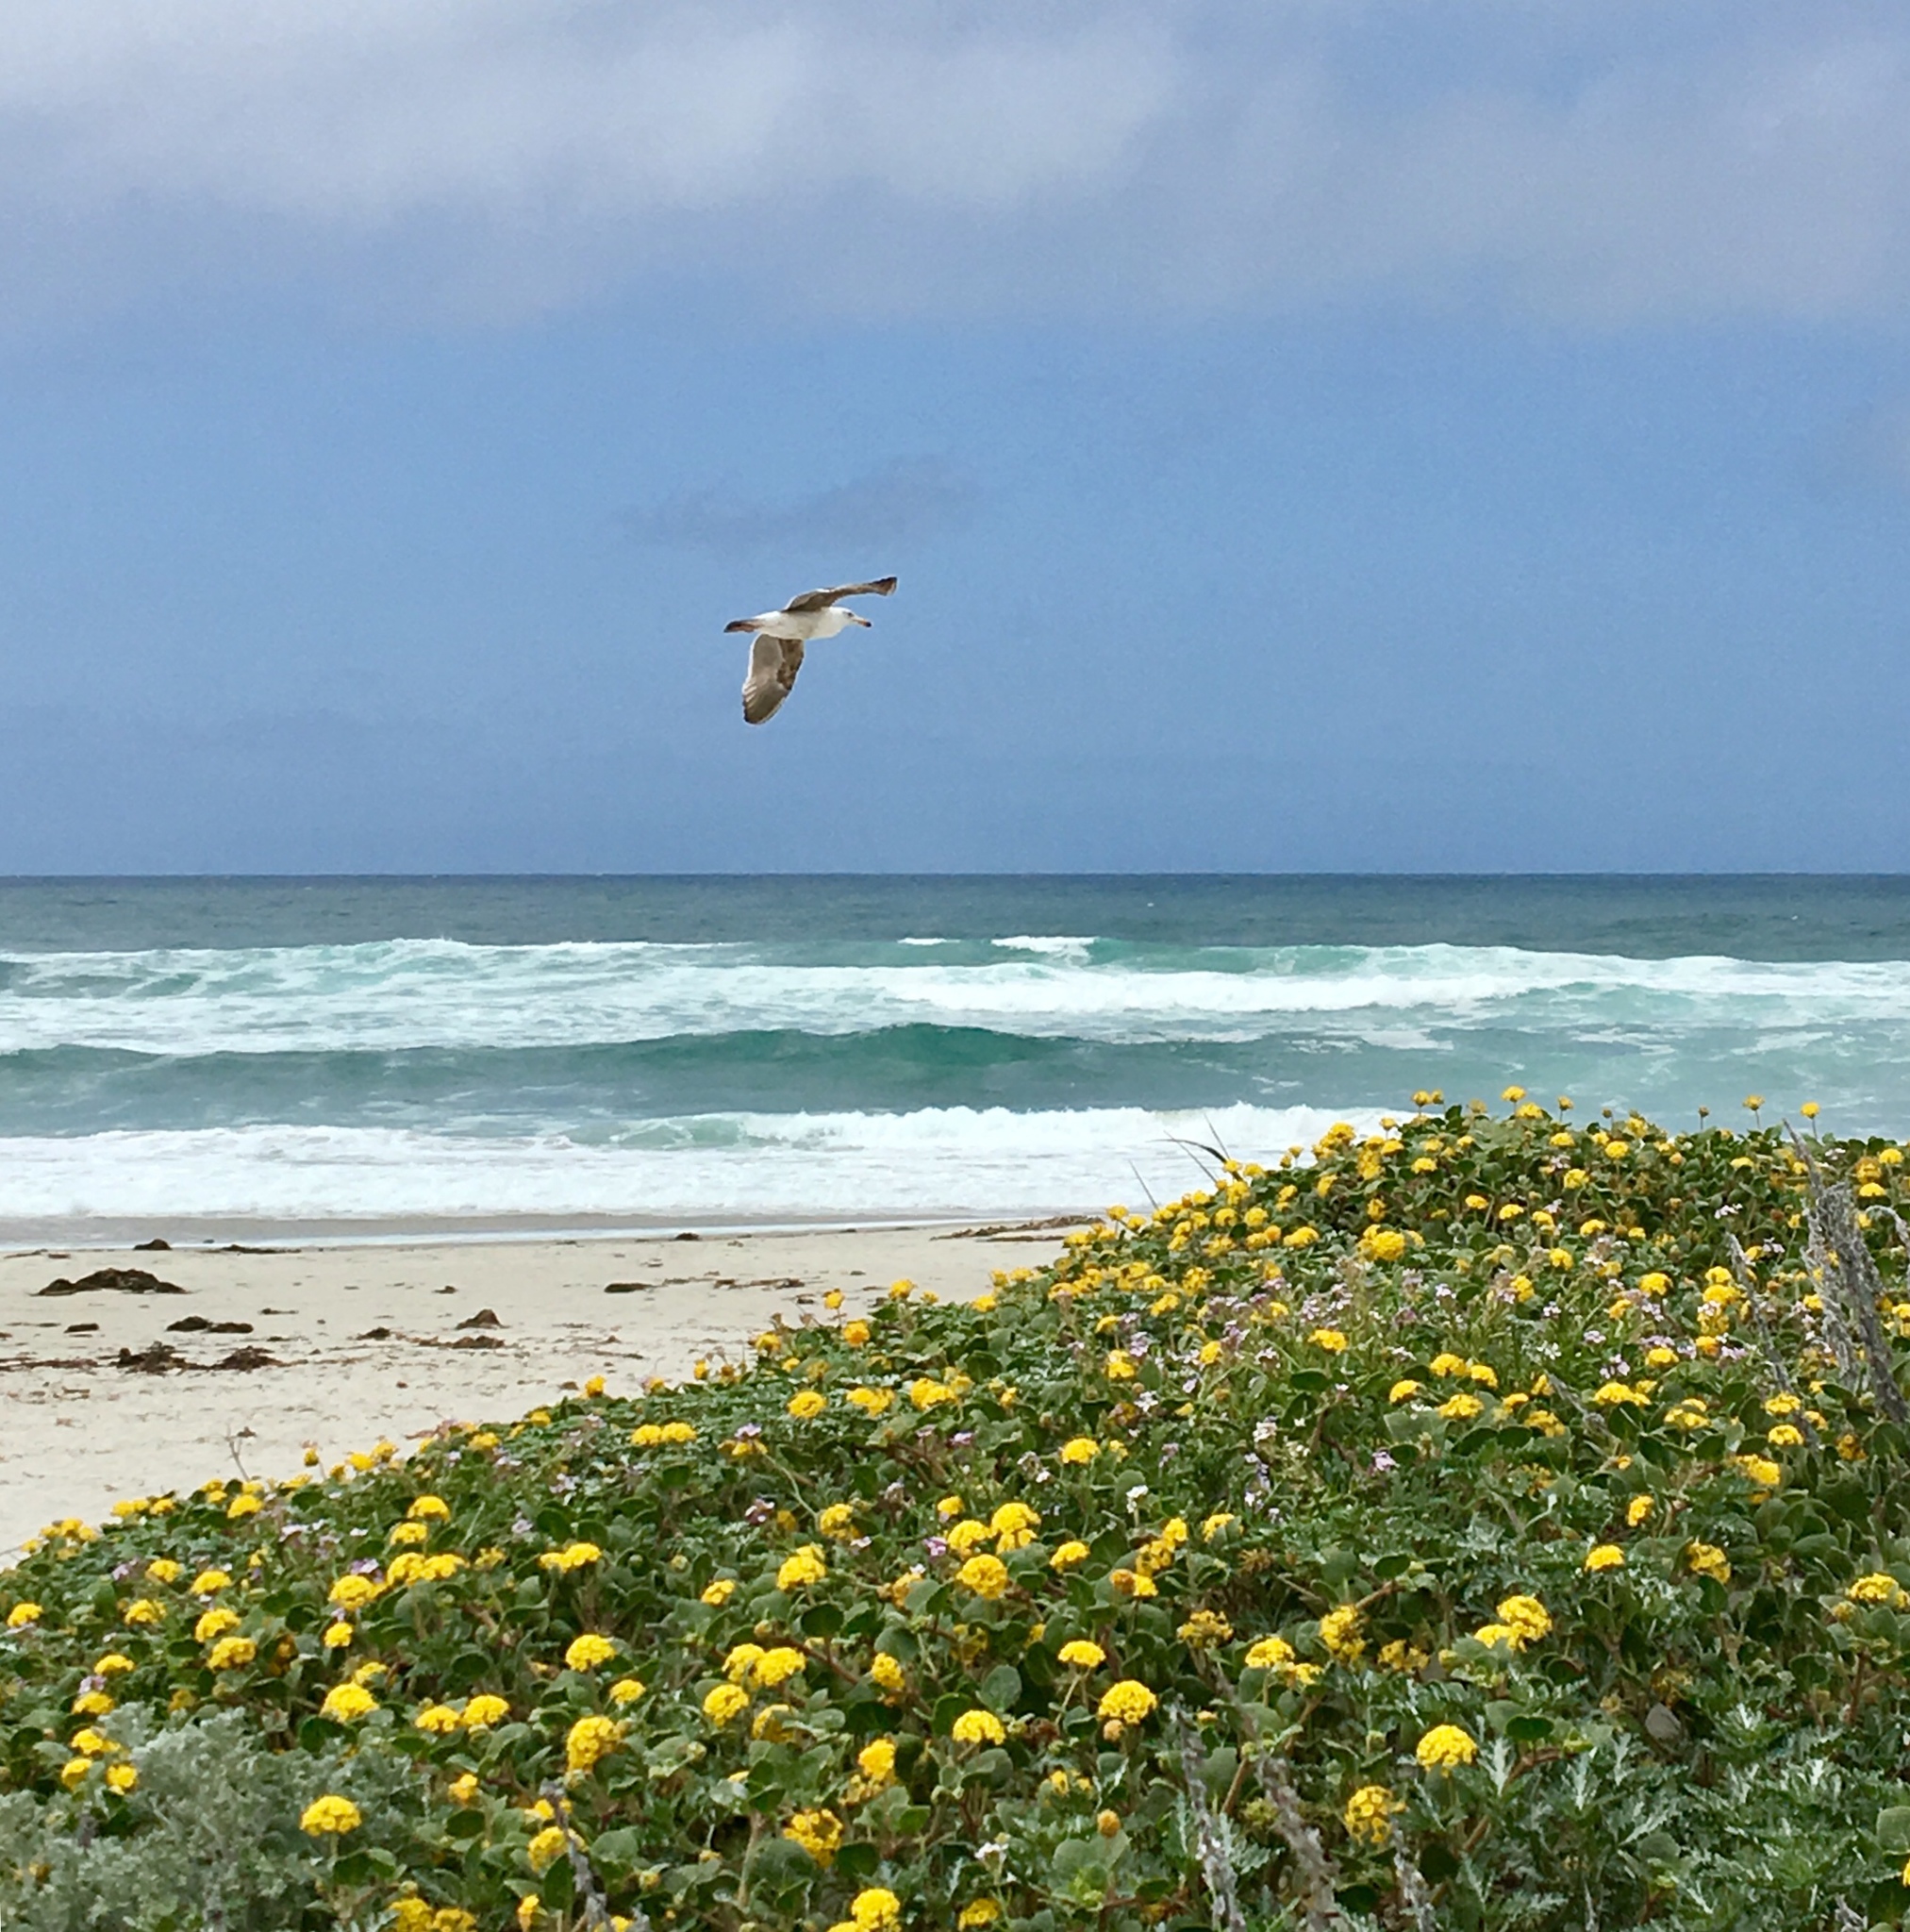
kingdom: Animalia
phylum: Chordata
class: Aves
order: Charadriiformes
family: Laridae
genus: Larus
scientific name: Larus occidentalis
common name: Western gull
